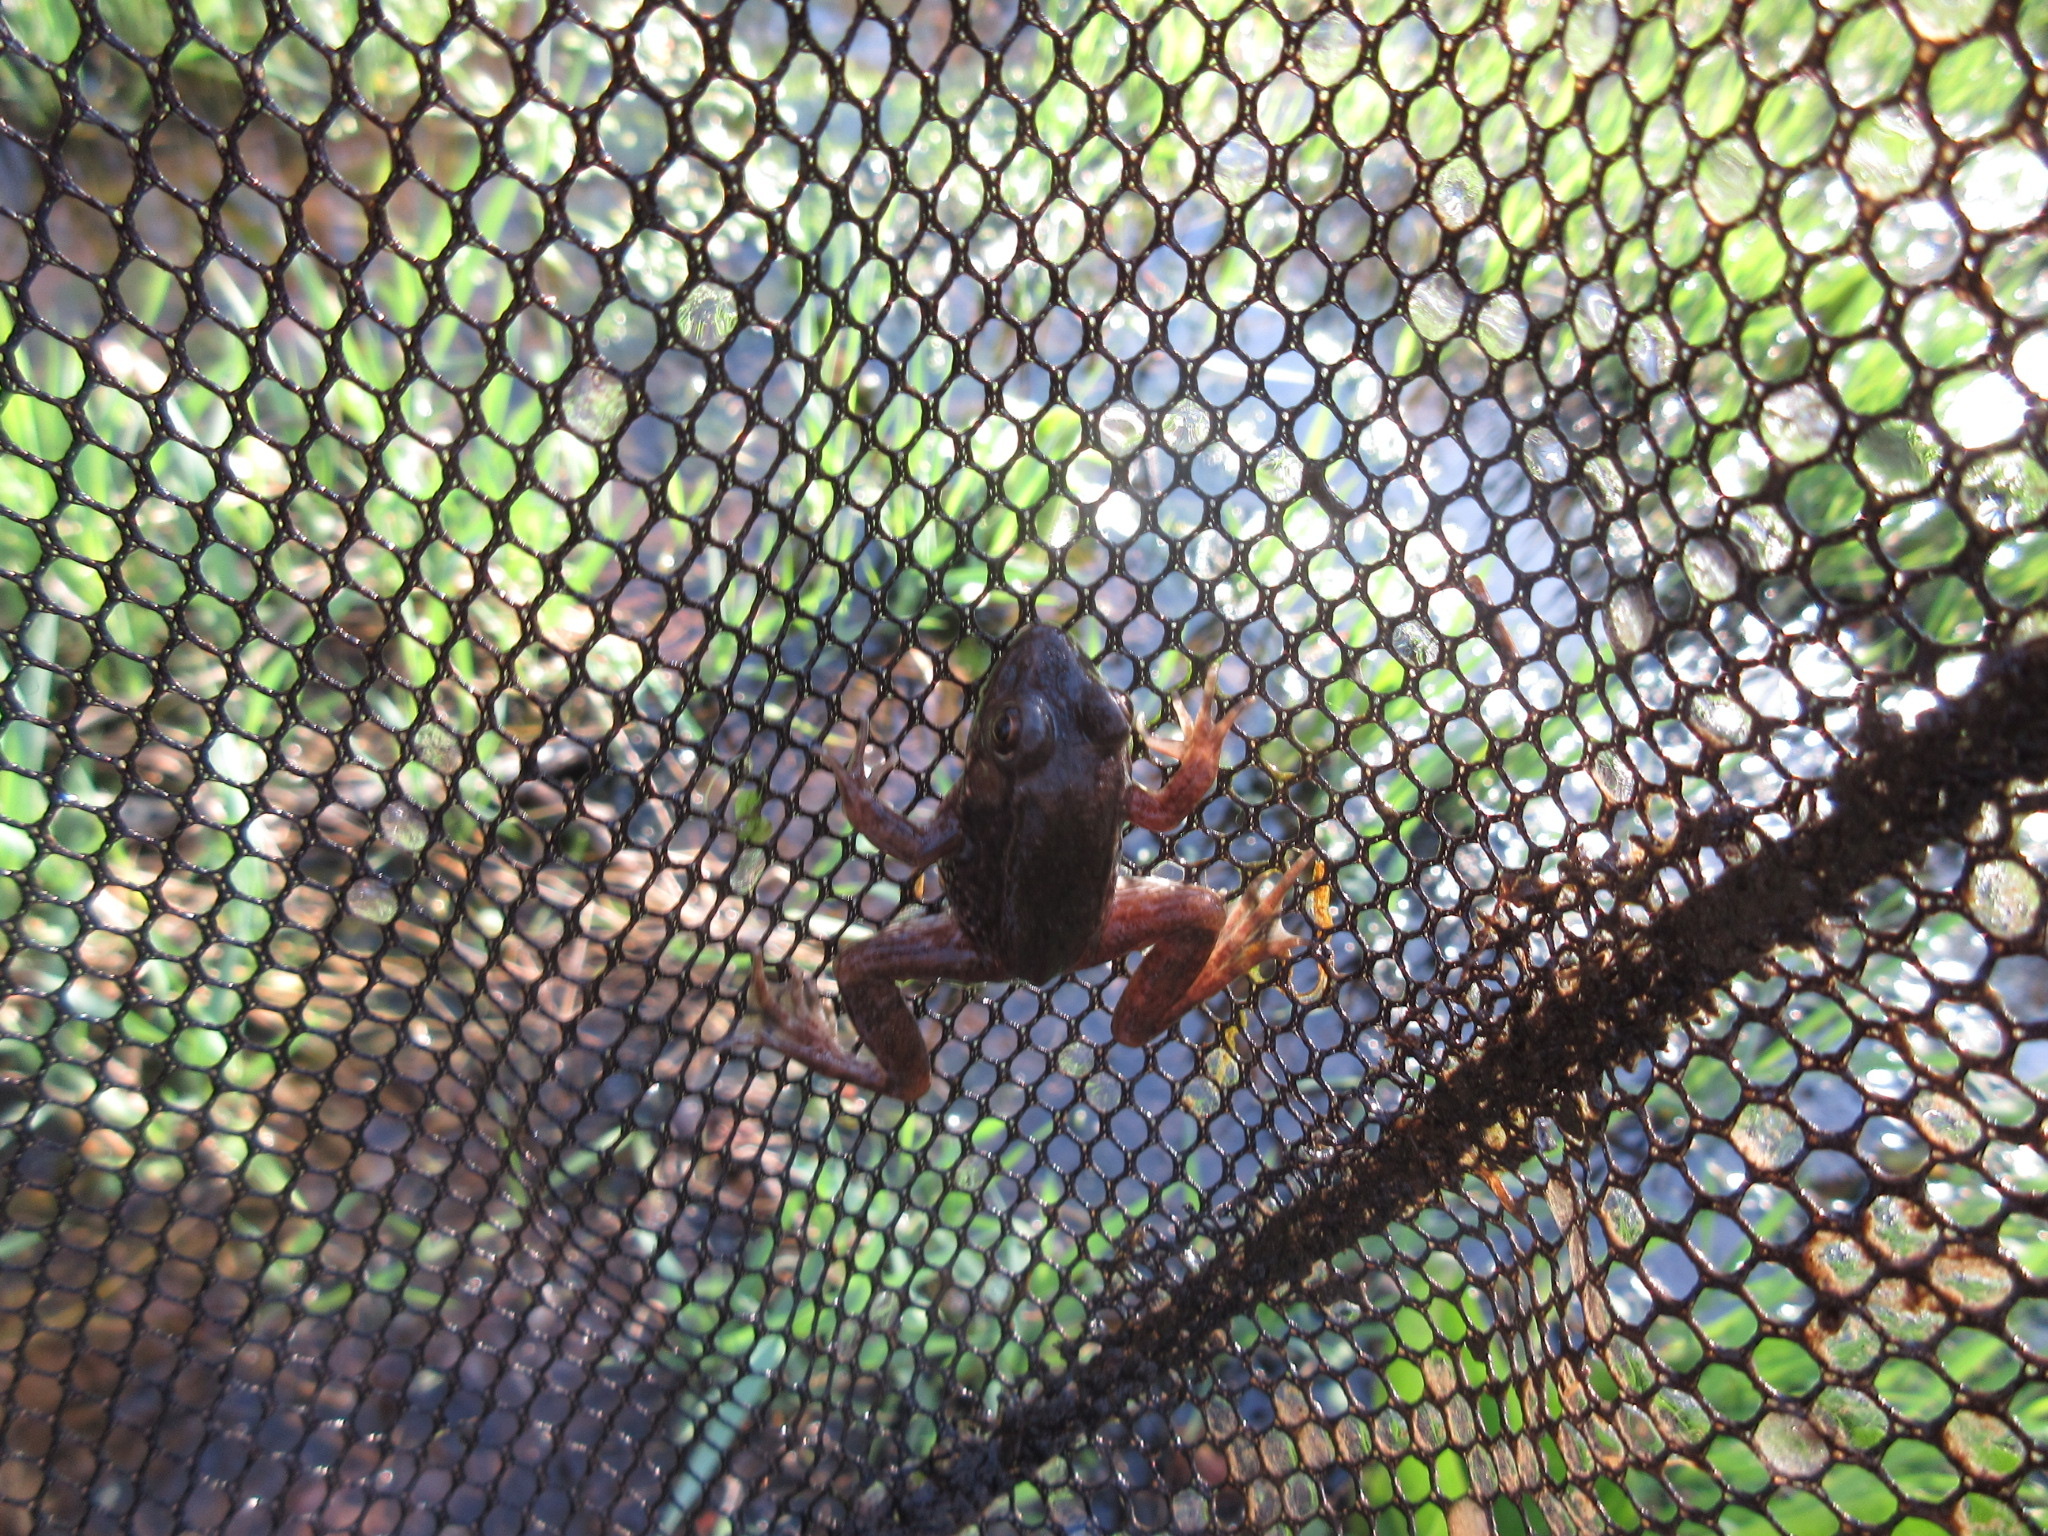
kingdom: Animalia
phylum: Chordata
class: Amphibia
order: Anura
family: Ranidae
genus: Lithobates
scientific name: Lithobates clamitans
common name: Green frog
